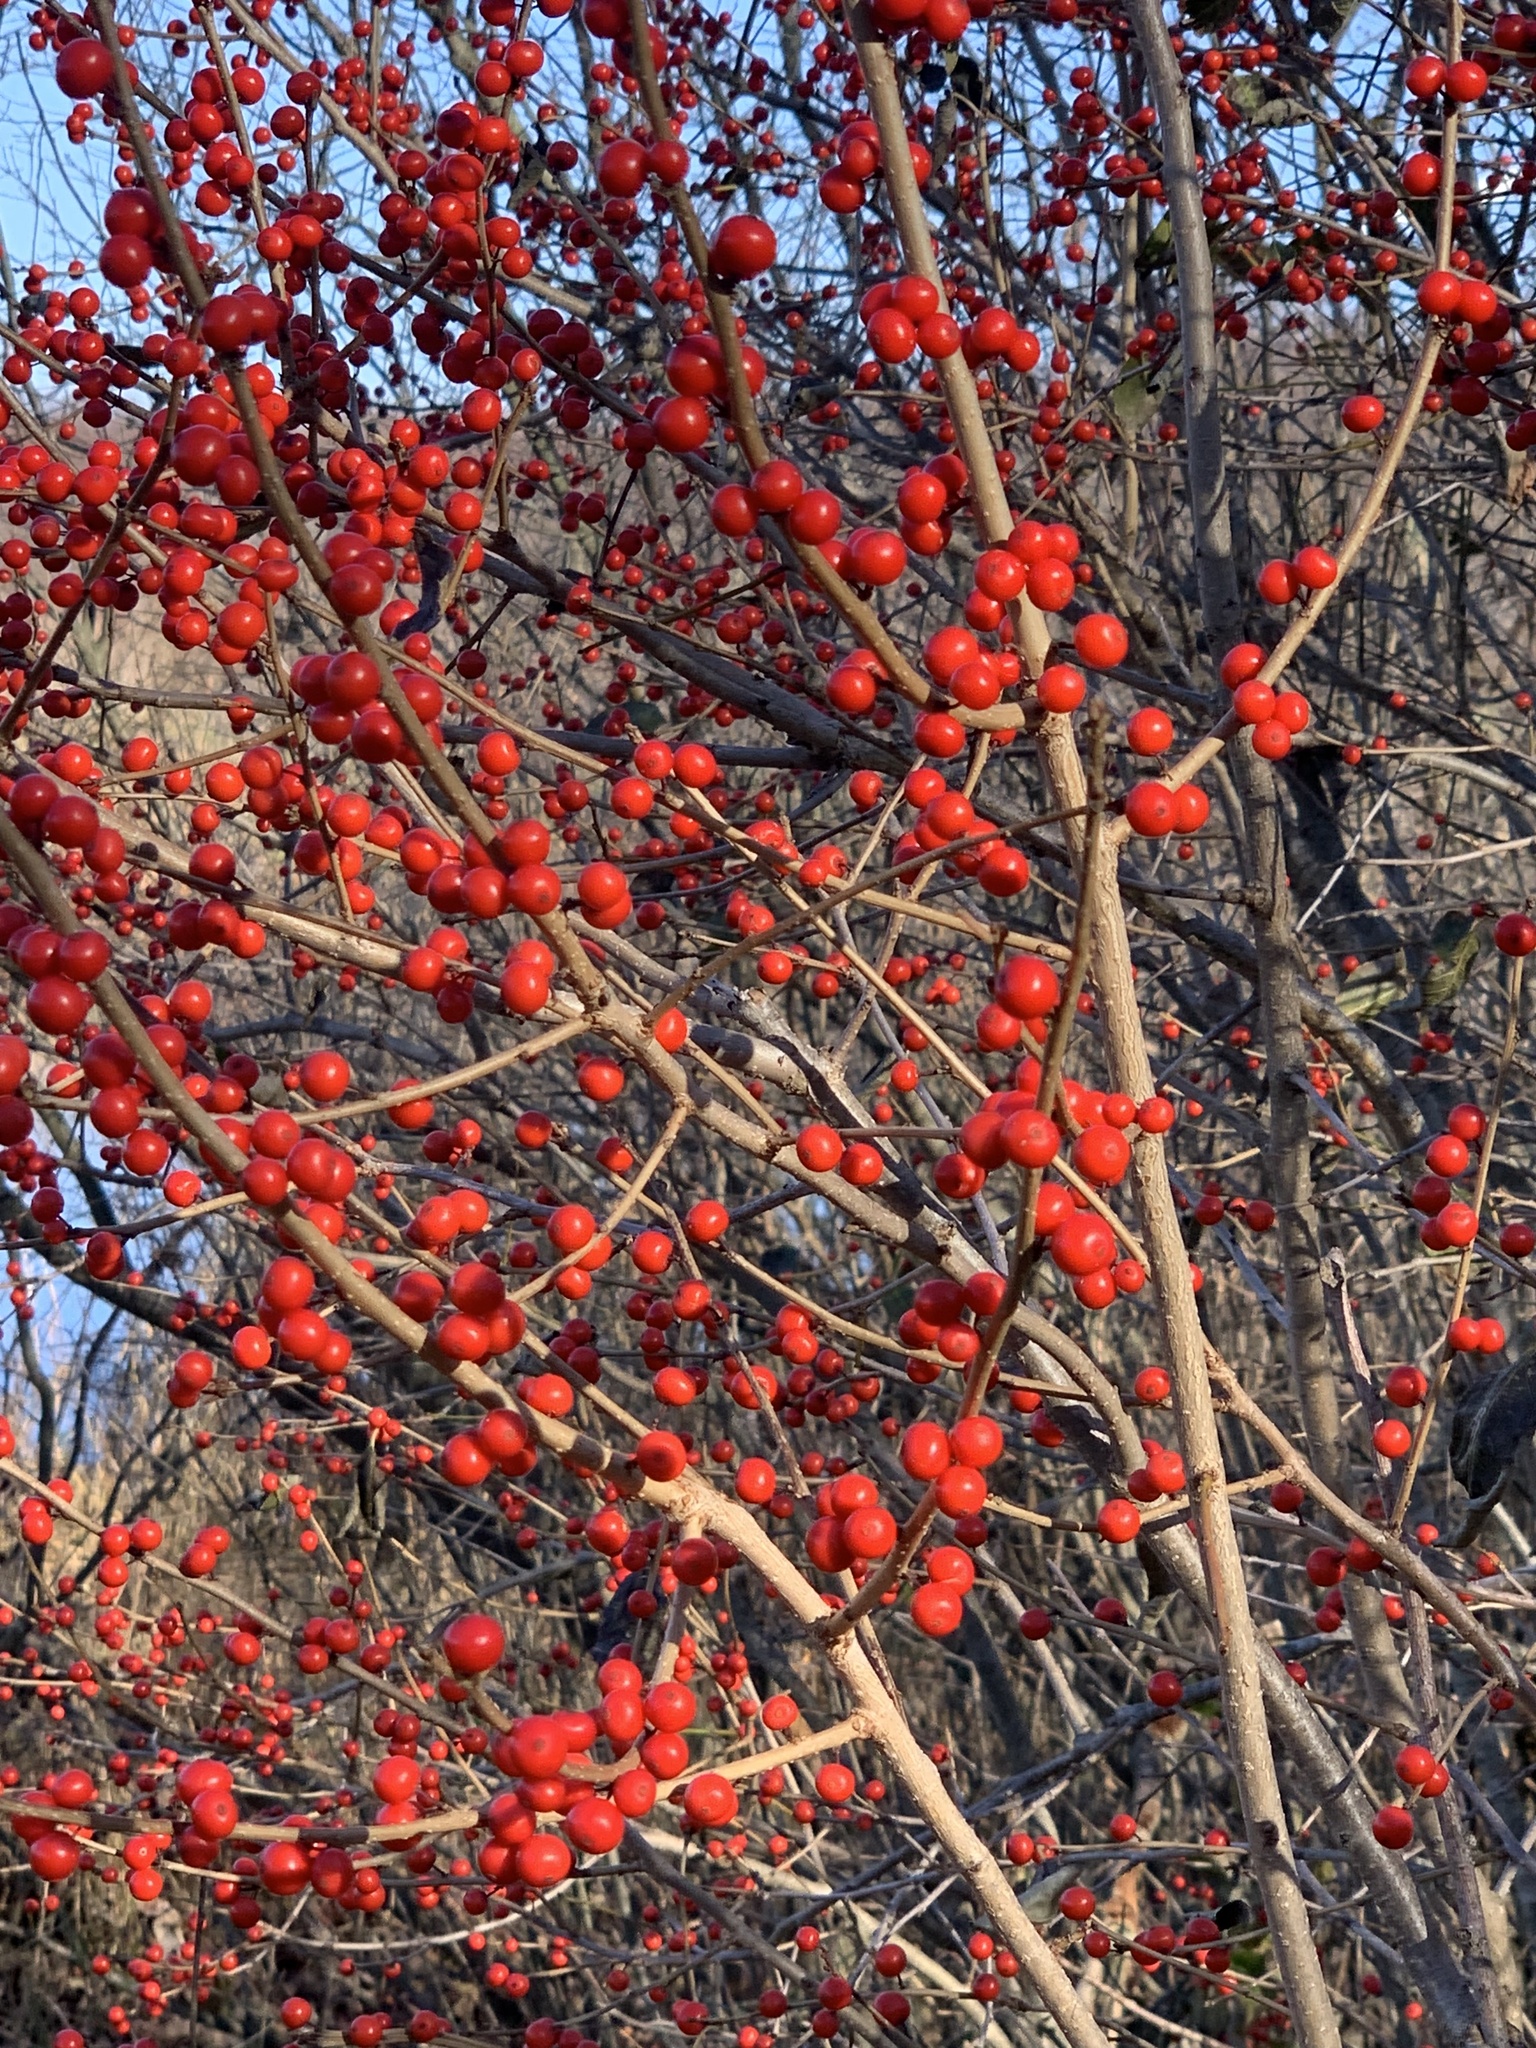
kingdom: Plantae
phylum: Tracheophyta
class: Magnoliopsida
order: Aquifoliales
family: Aquifoliaceae
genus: Ilex
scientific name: Ilex verticillata
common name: Virginia winterberry
